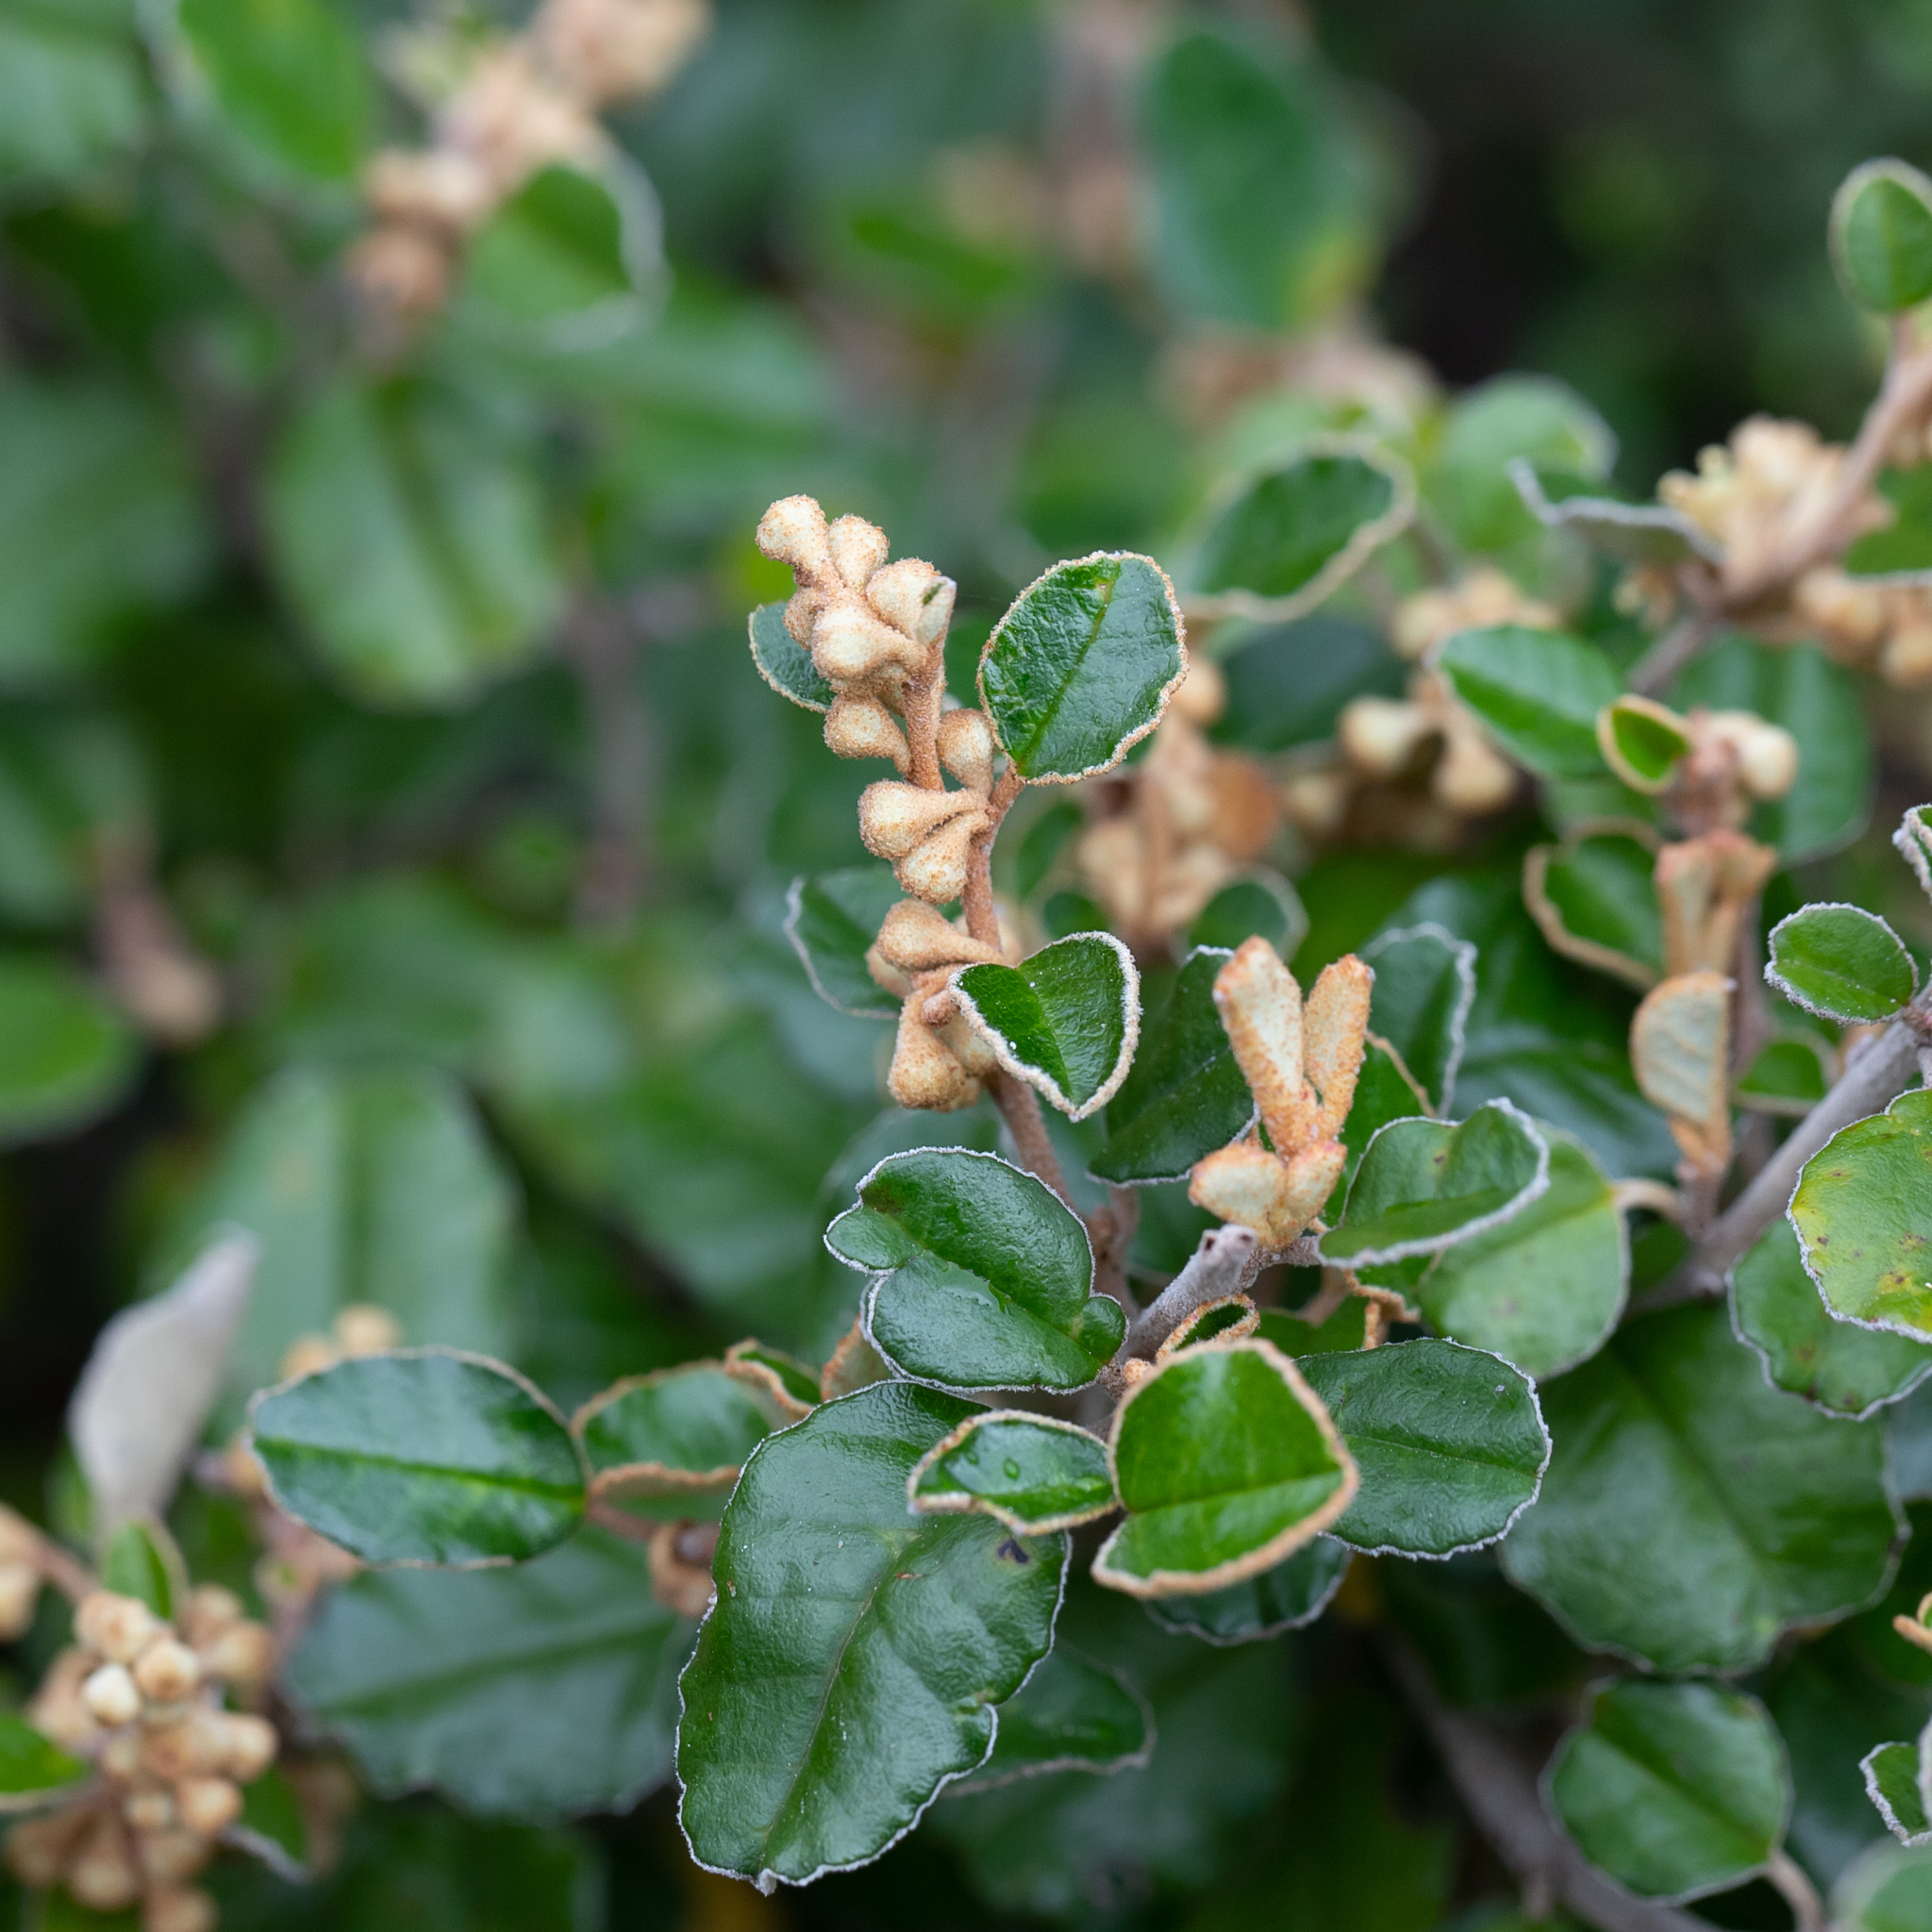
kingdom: Plantae
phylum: Tracheophyta
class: Magnoliopsida
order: Rosales
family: Rhamnaceae
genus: Pomaderris
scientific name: Pomaderris paniculosa
